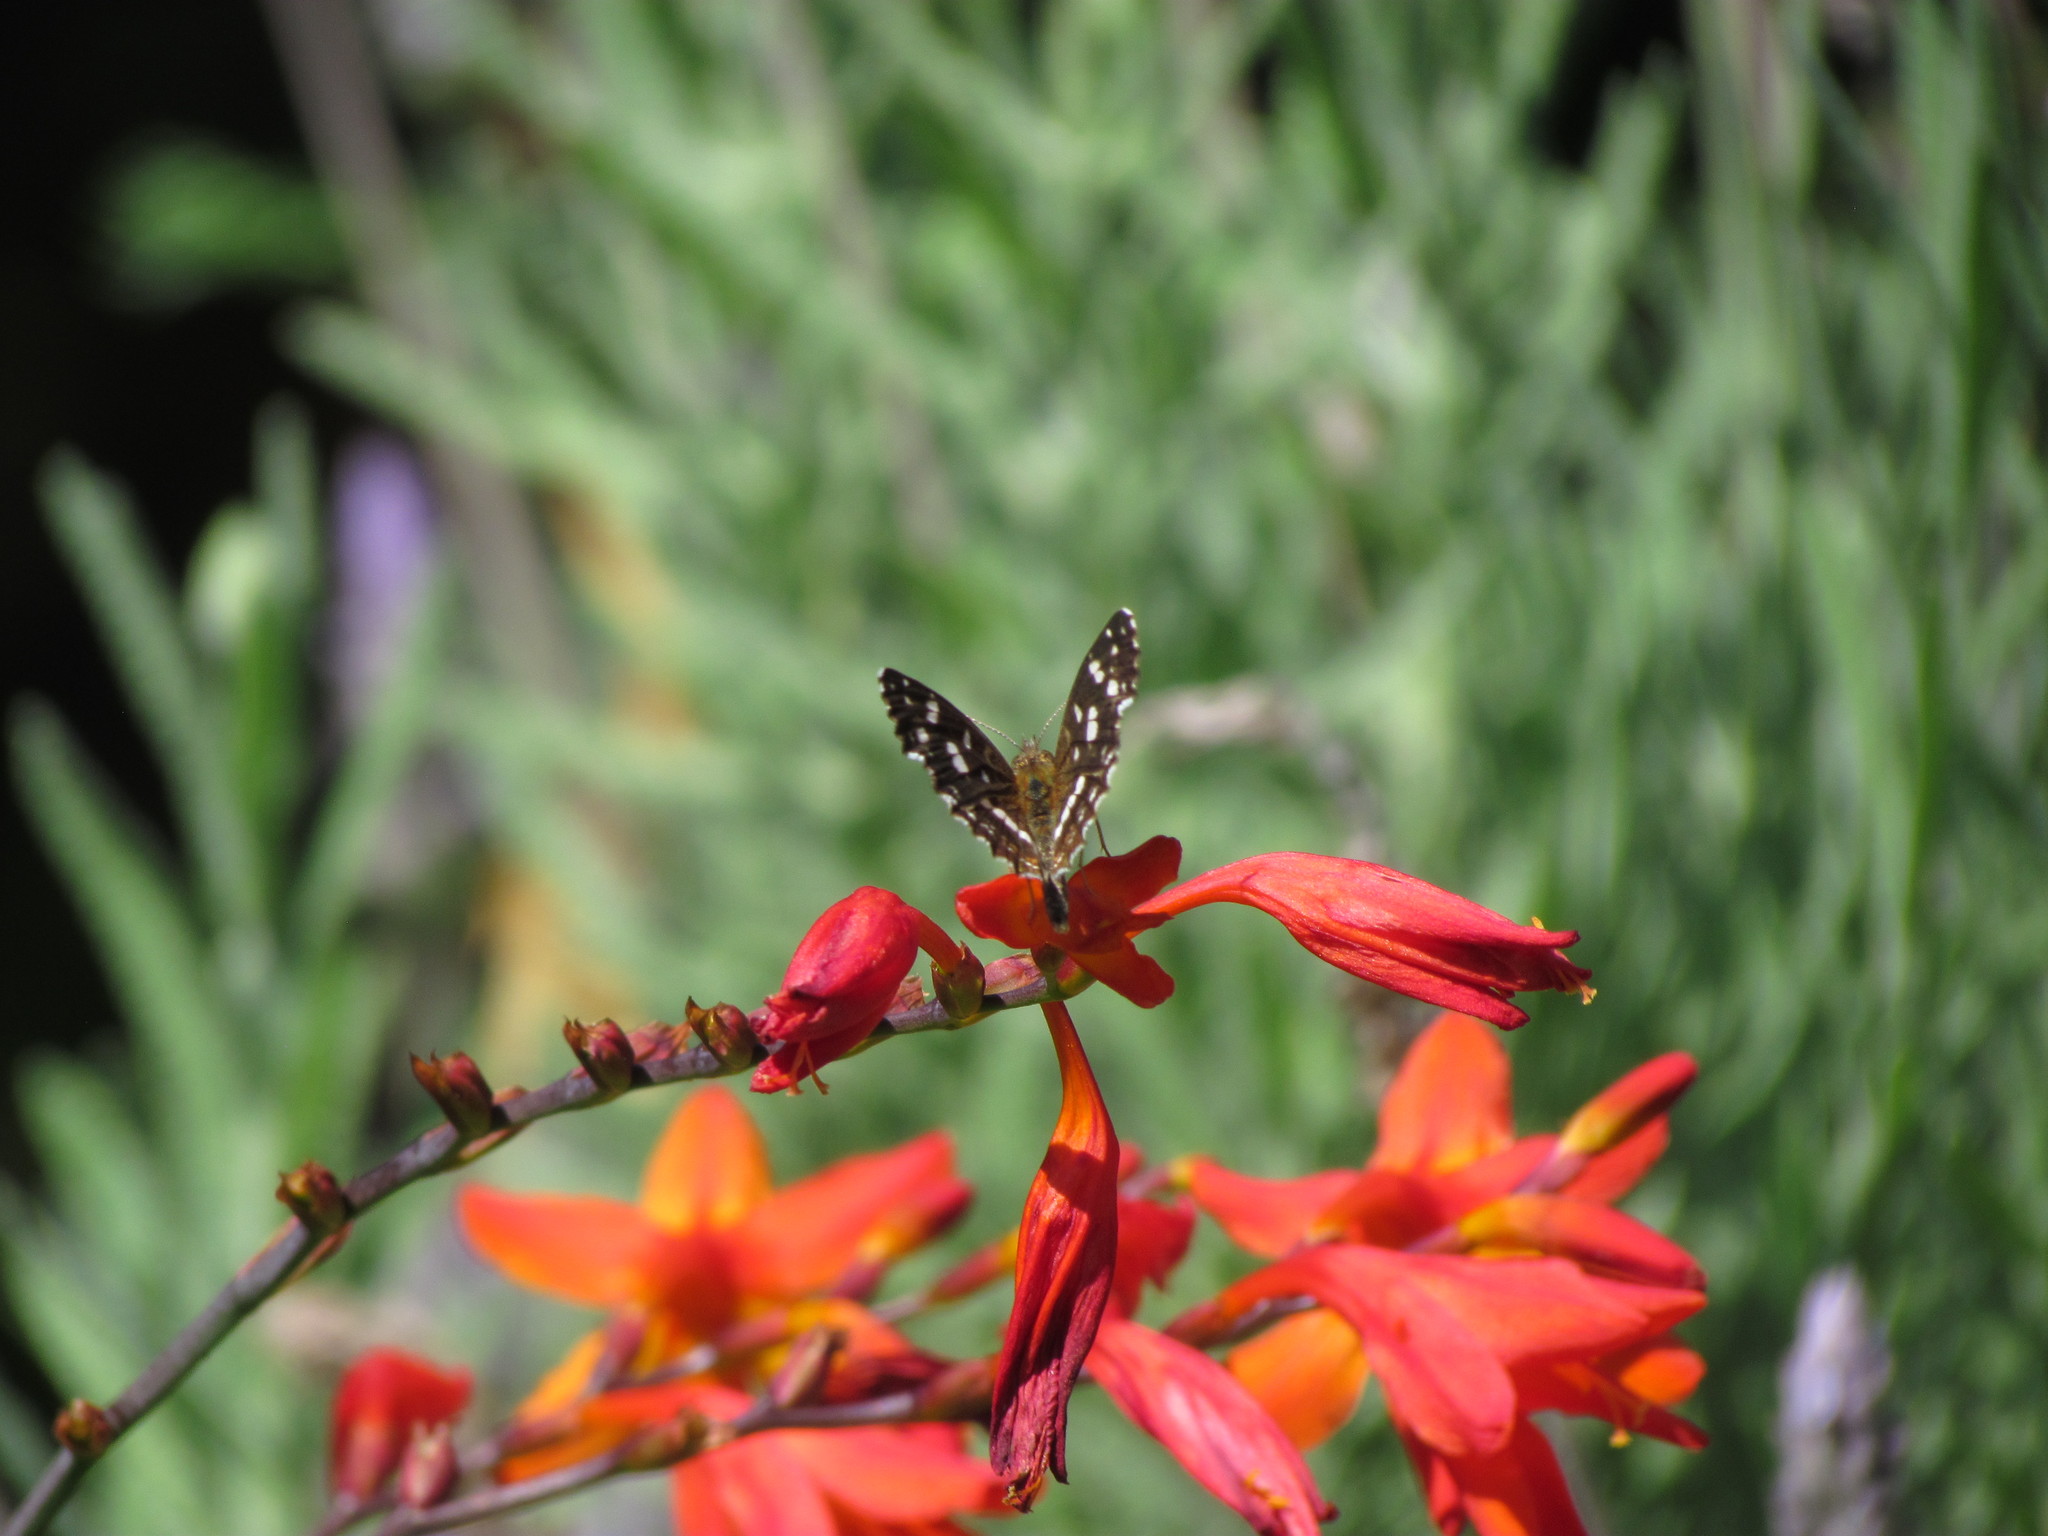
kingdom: Animalia
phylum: Arthropoda
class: Insecta
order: Lepidoptera
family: Nymphalidae
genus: Ortilia
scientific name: Ortilia ithra
